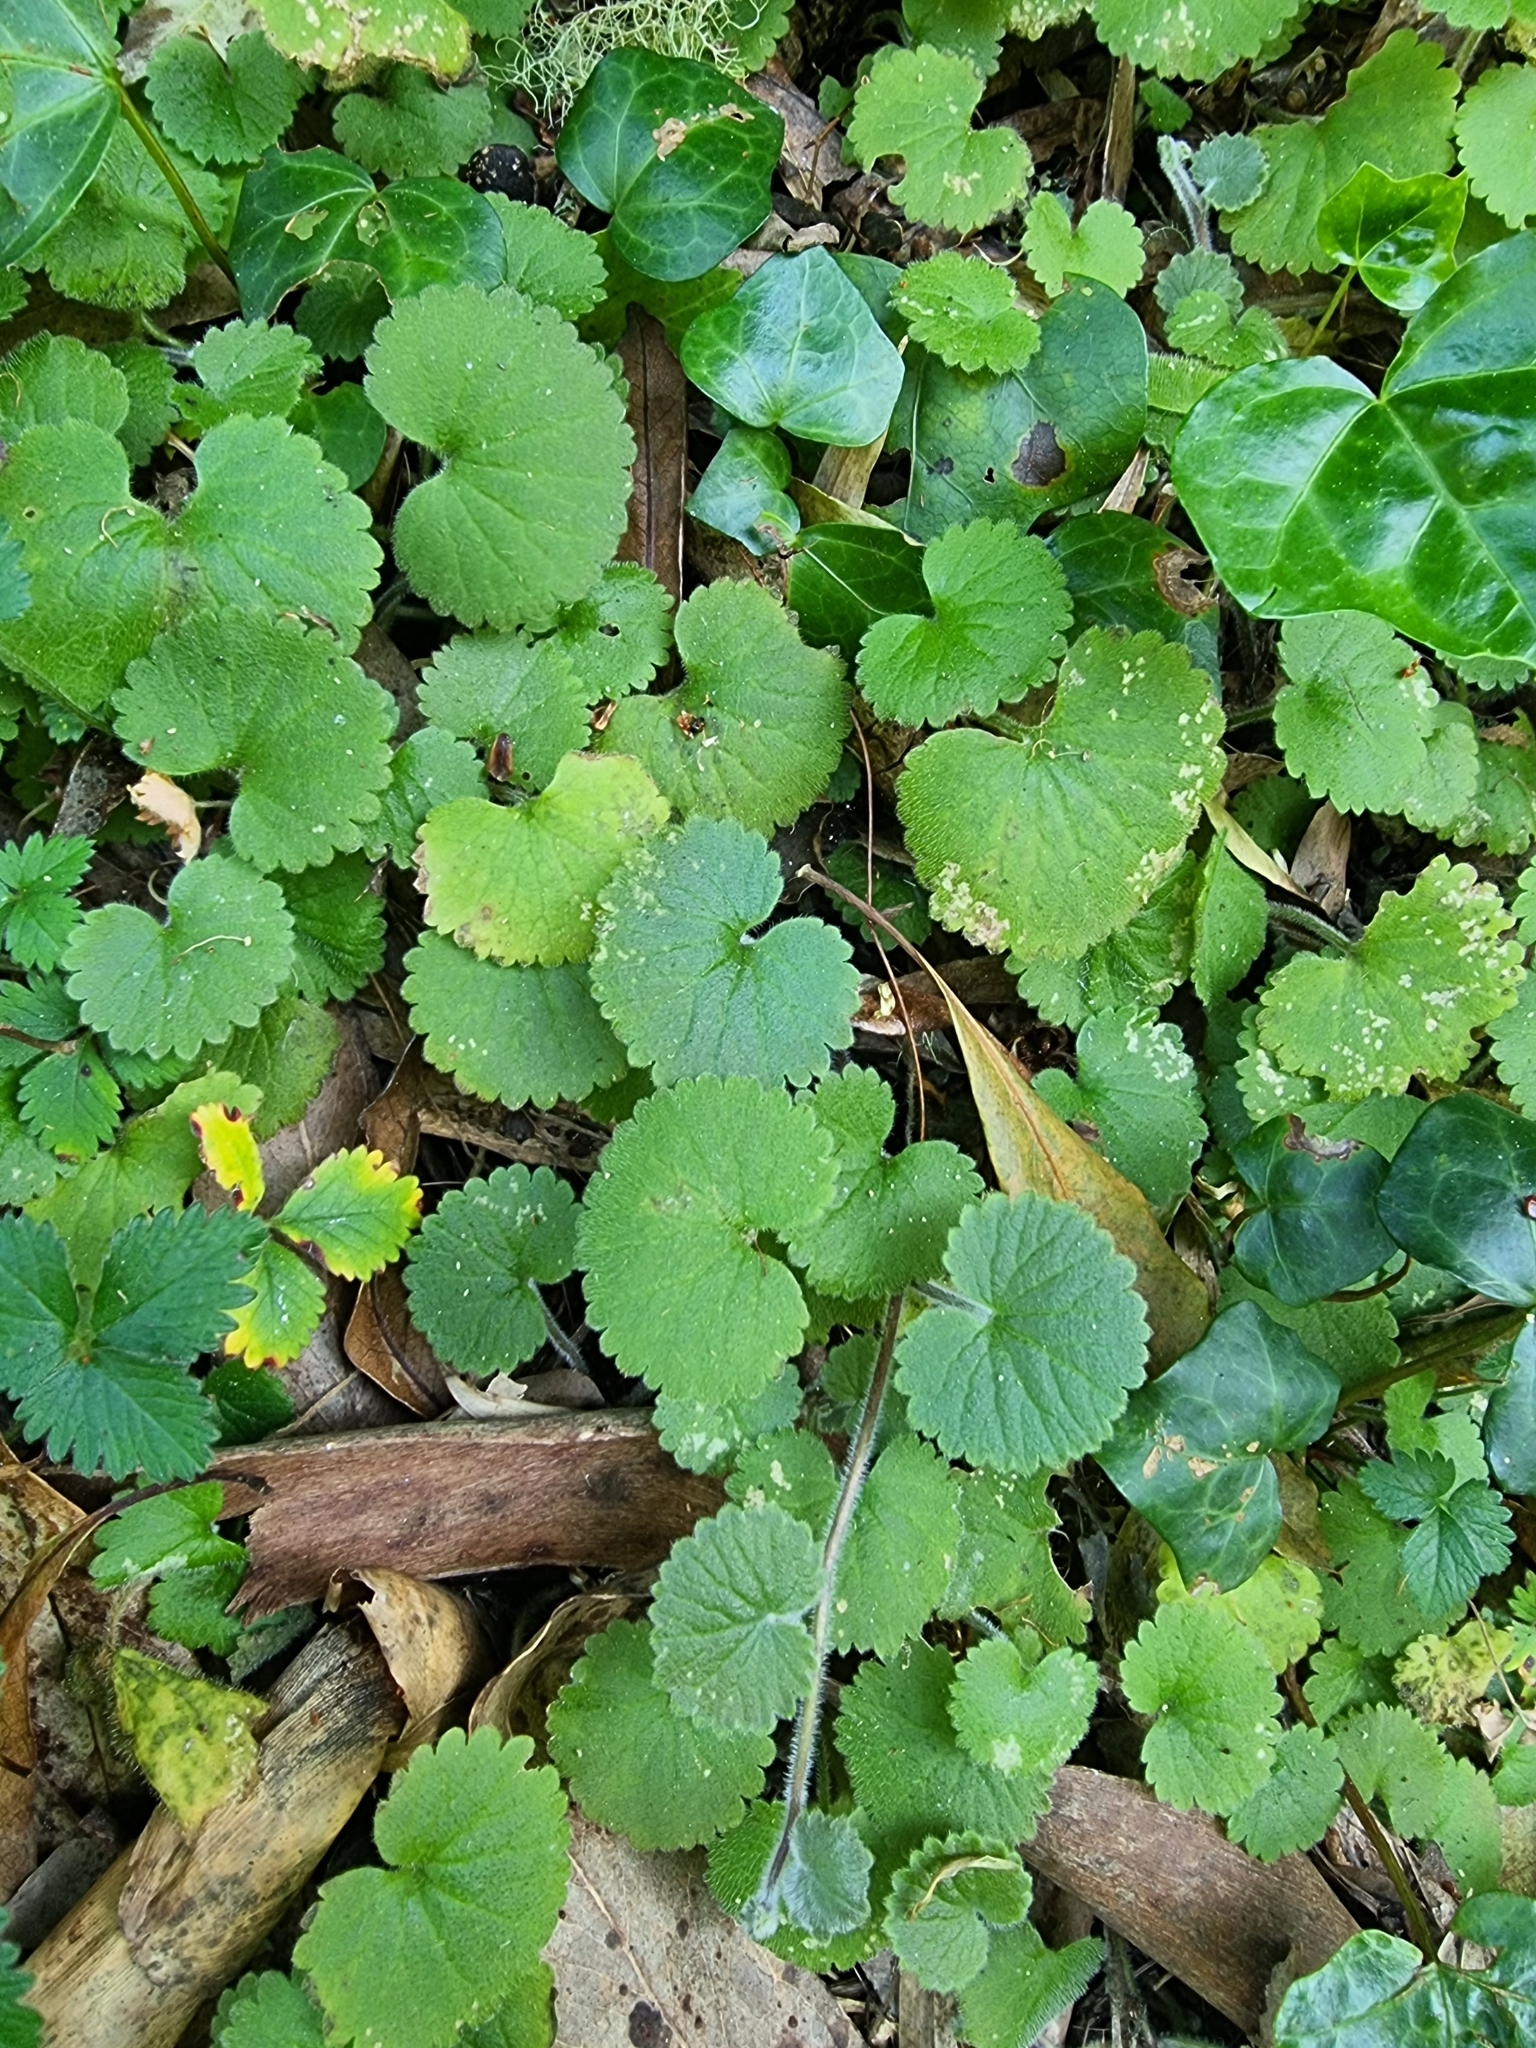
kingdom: Plantae
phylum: Tracheophyta
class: Magnoliopsida
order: Lamiales
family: Plantaginaceae
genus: Sibthorpia
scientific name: Sibthorpia peregrina
